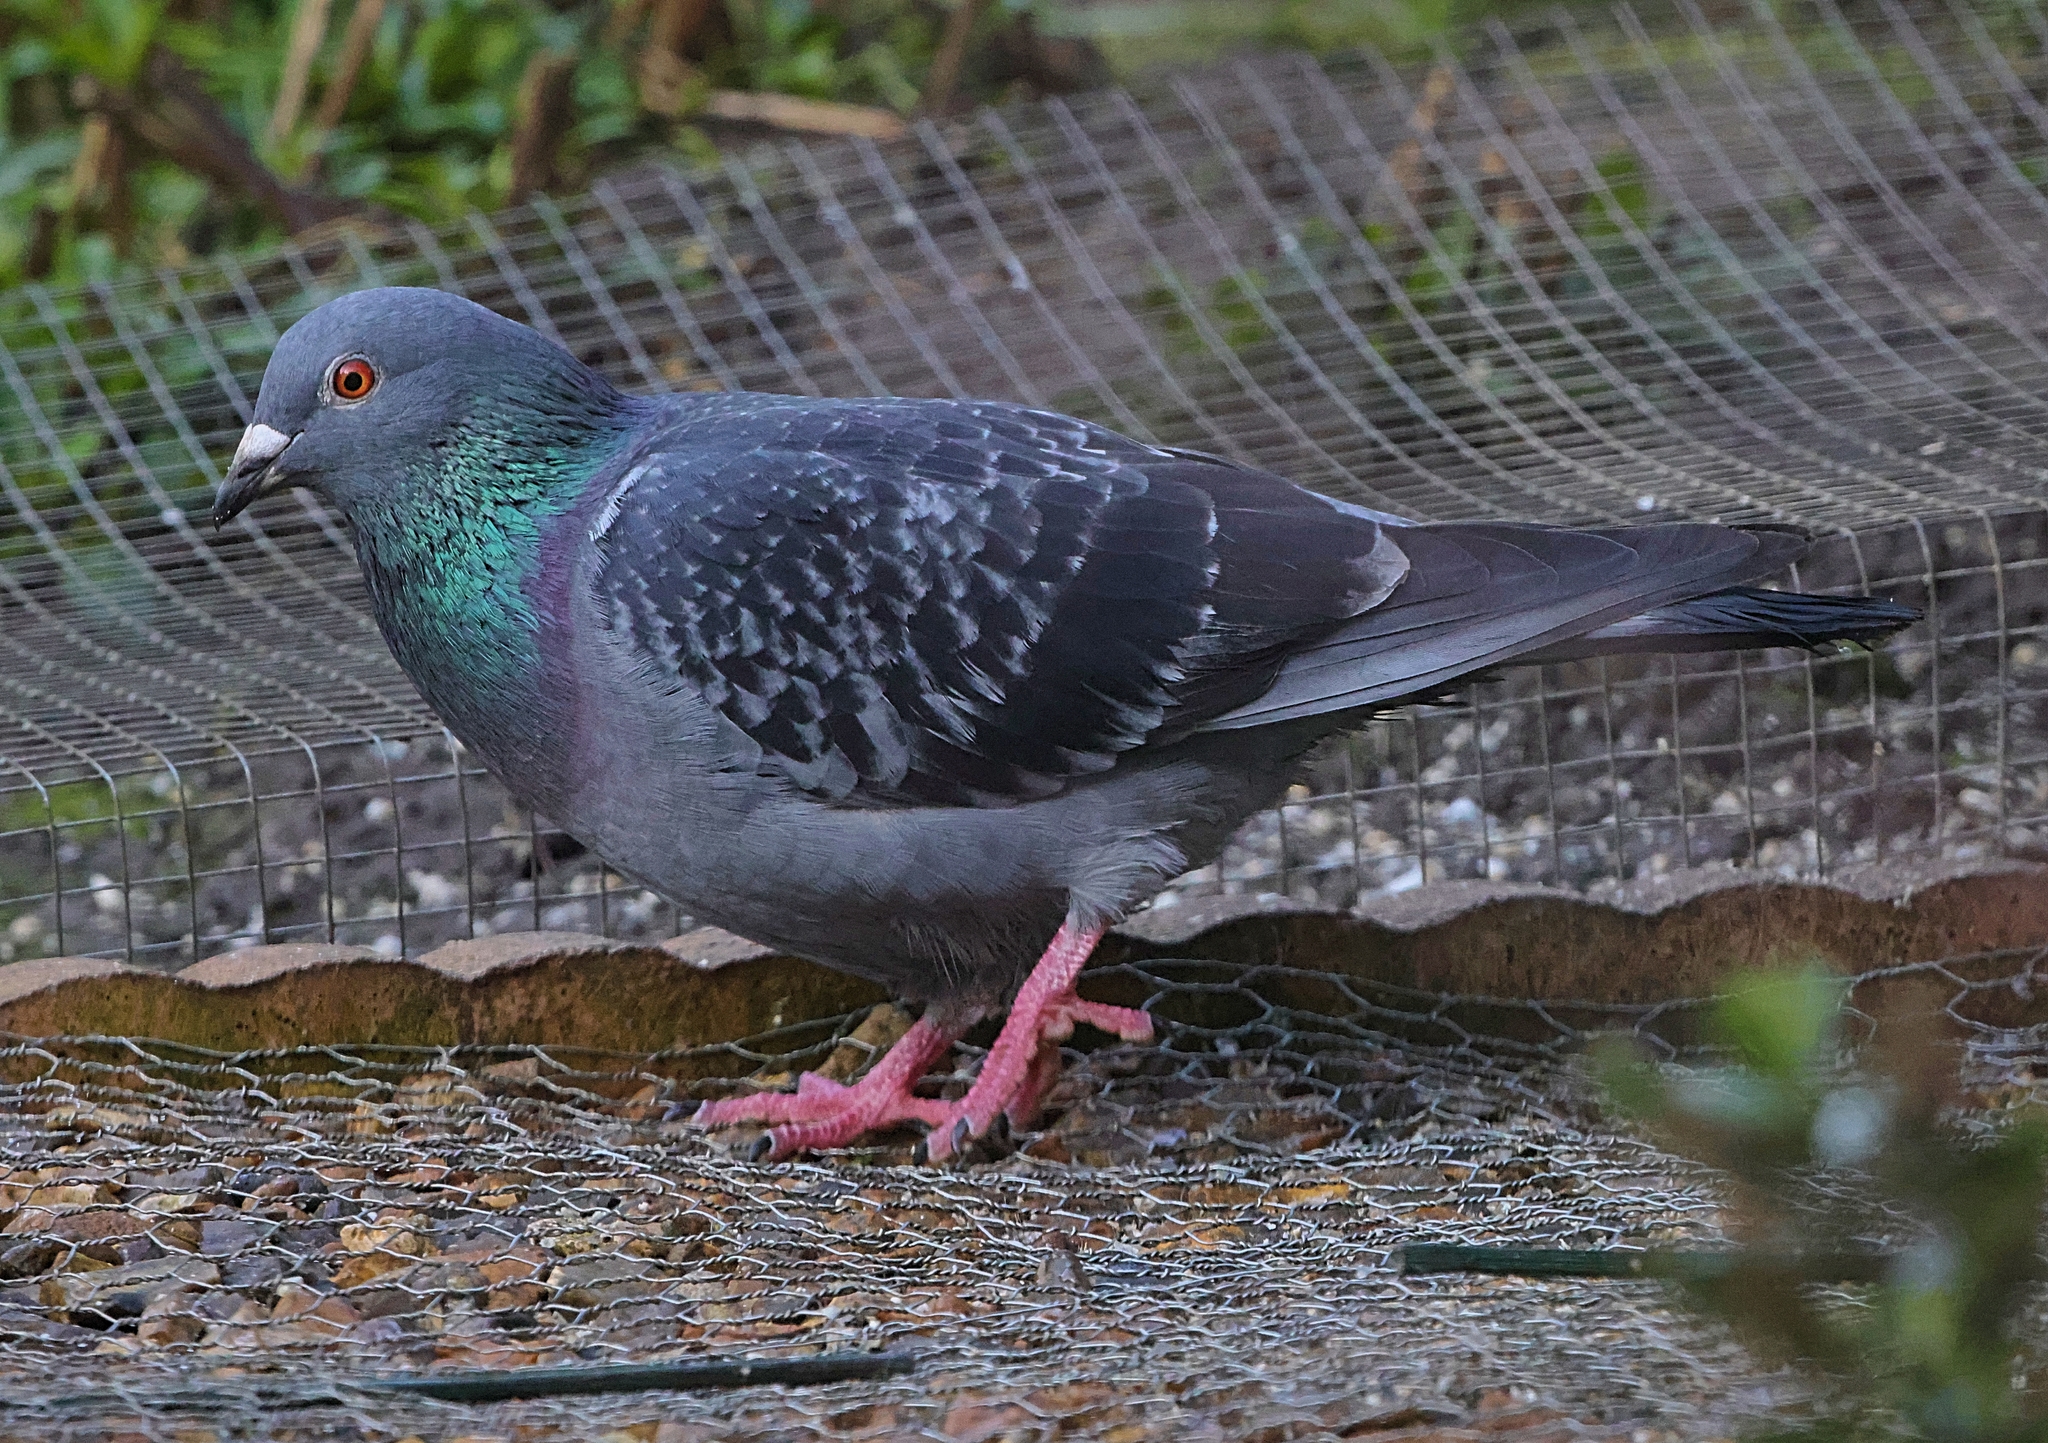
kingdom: Animalia
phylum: Chordata
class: Aves
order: Columbiformes
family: Columbidae
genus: Columba
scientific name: Columba livia
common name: Rock pigeon
